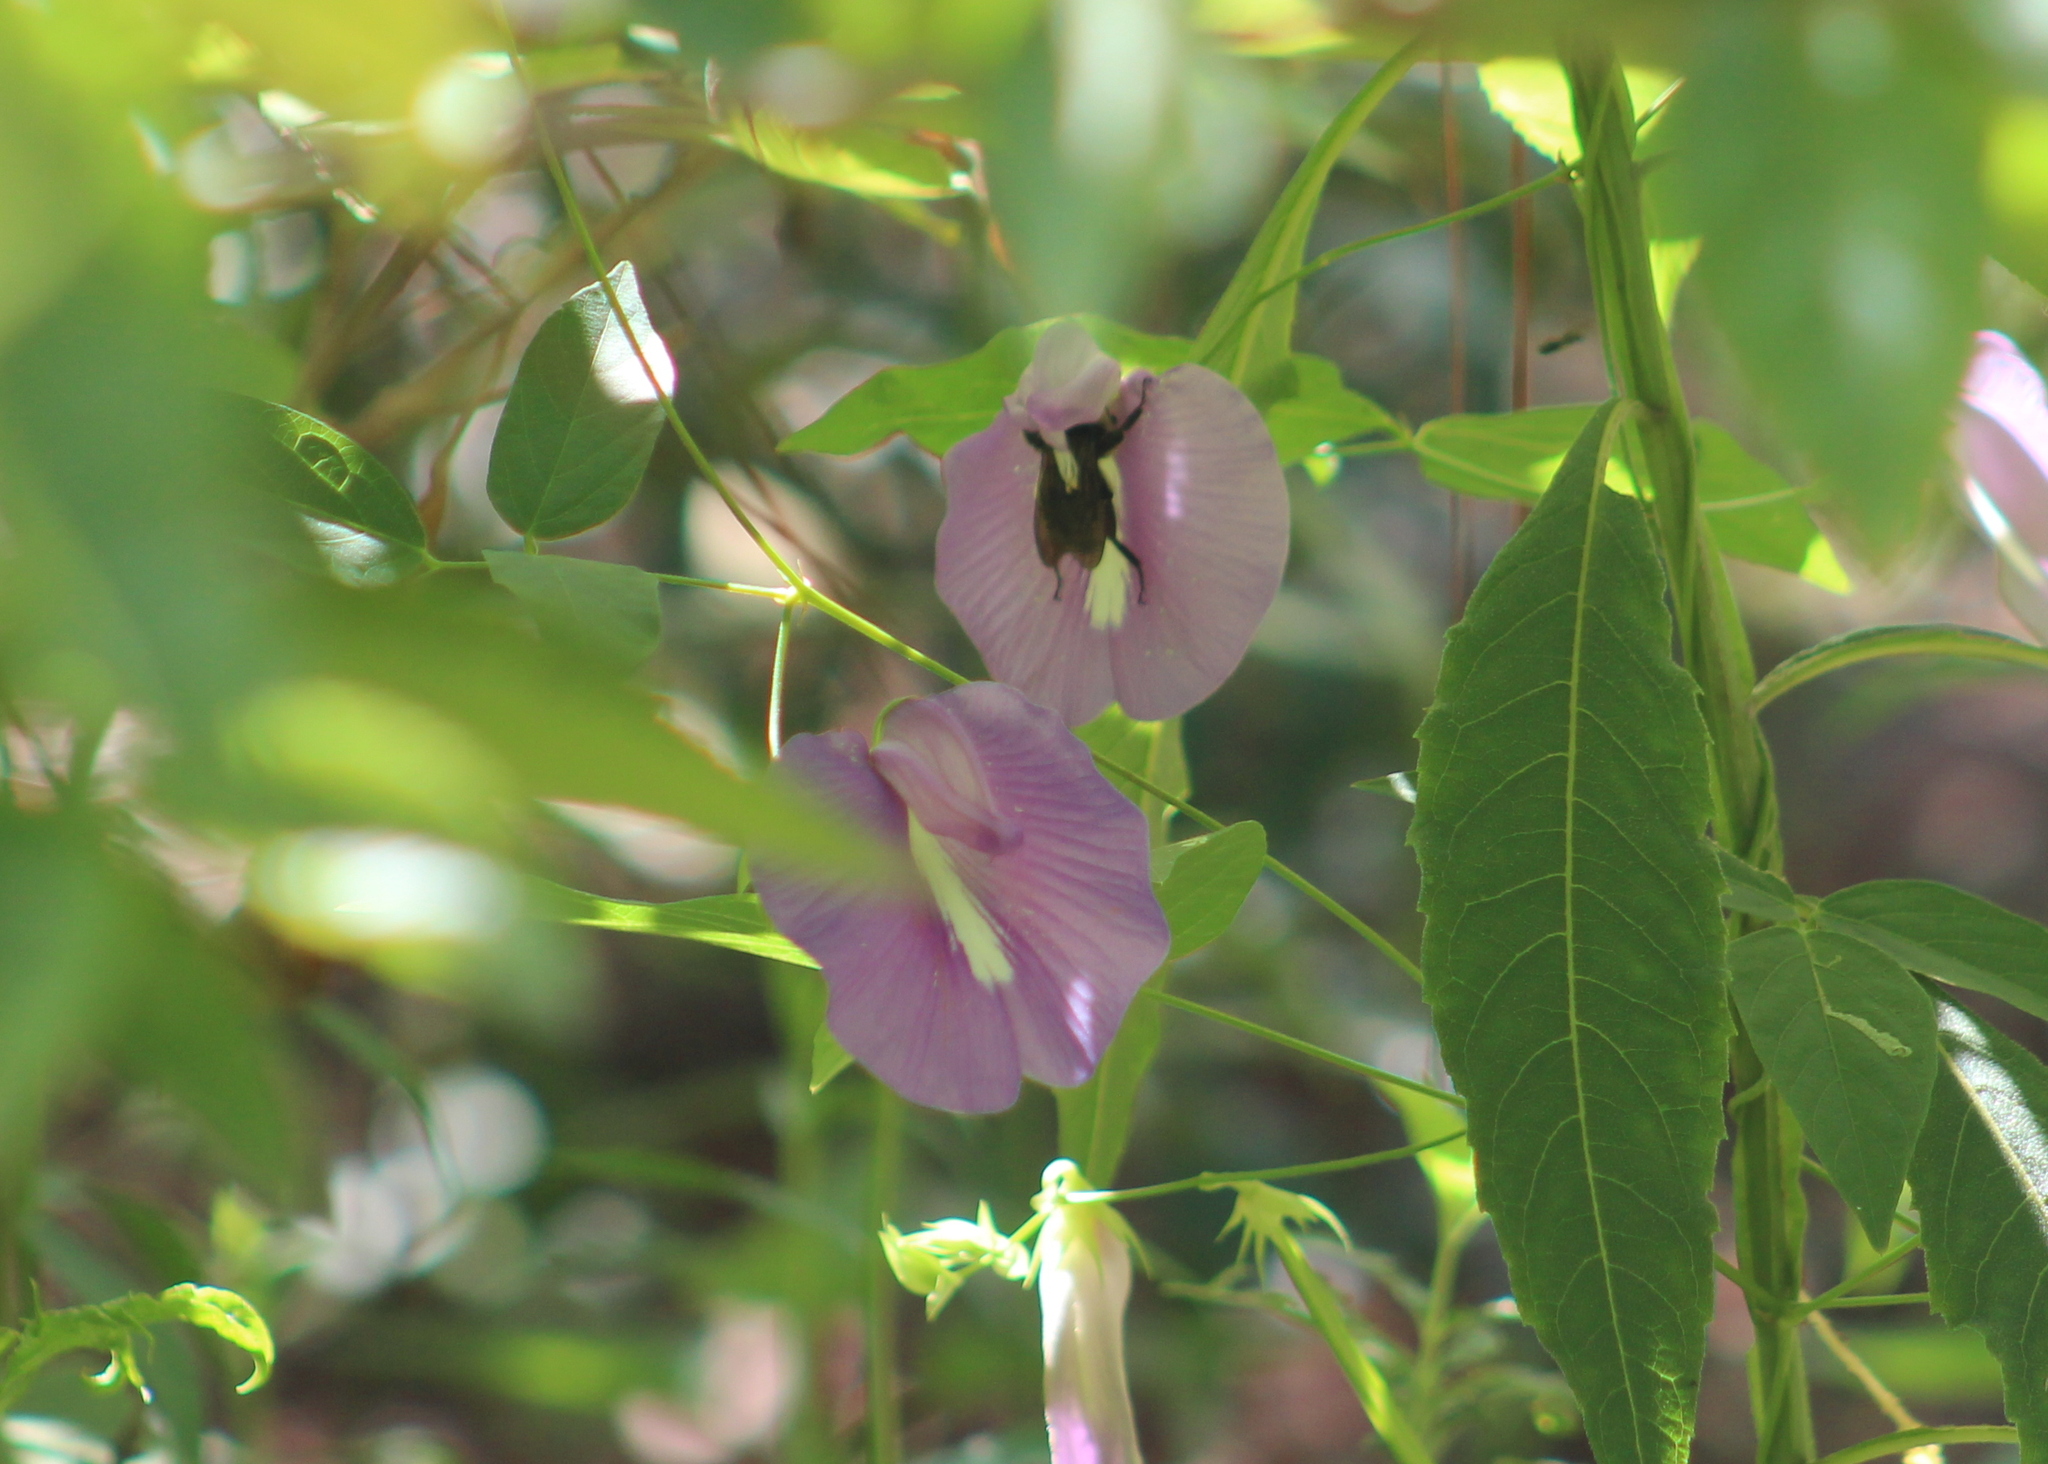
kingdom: Plantae
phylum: Tracheophyta
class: Magnoliopsida
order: Fabales
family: Fabaceae
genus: Centrosema
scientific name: Centrosema virginianum
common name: Butterfly-pea
